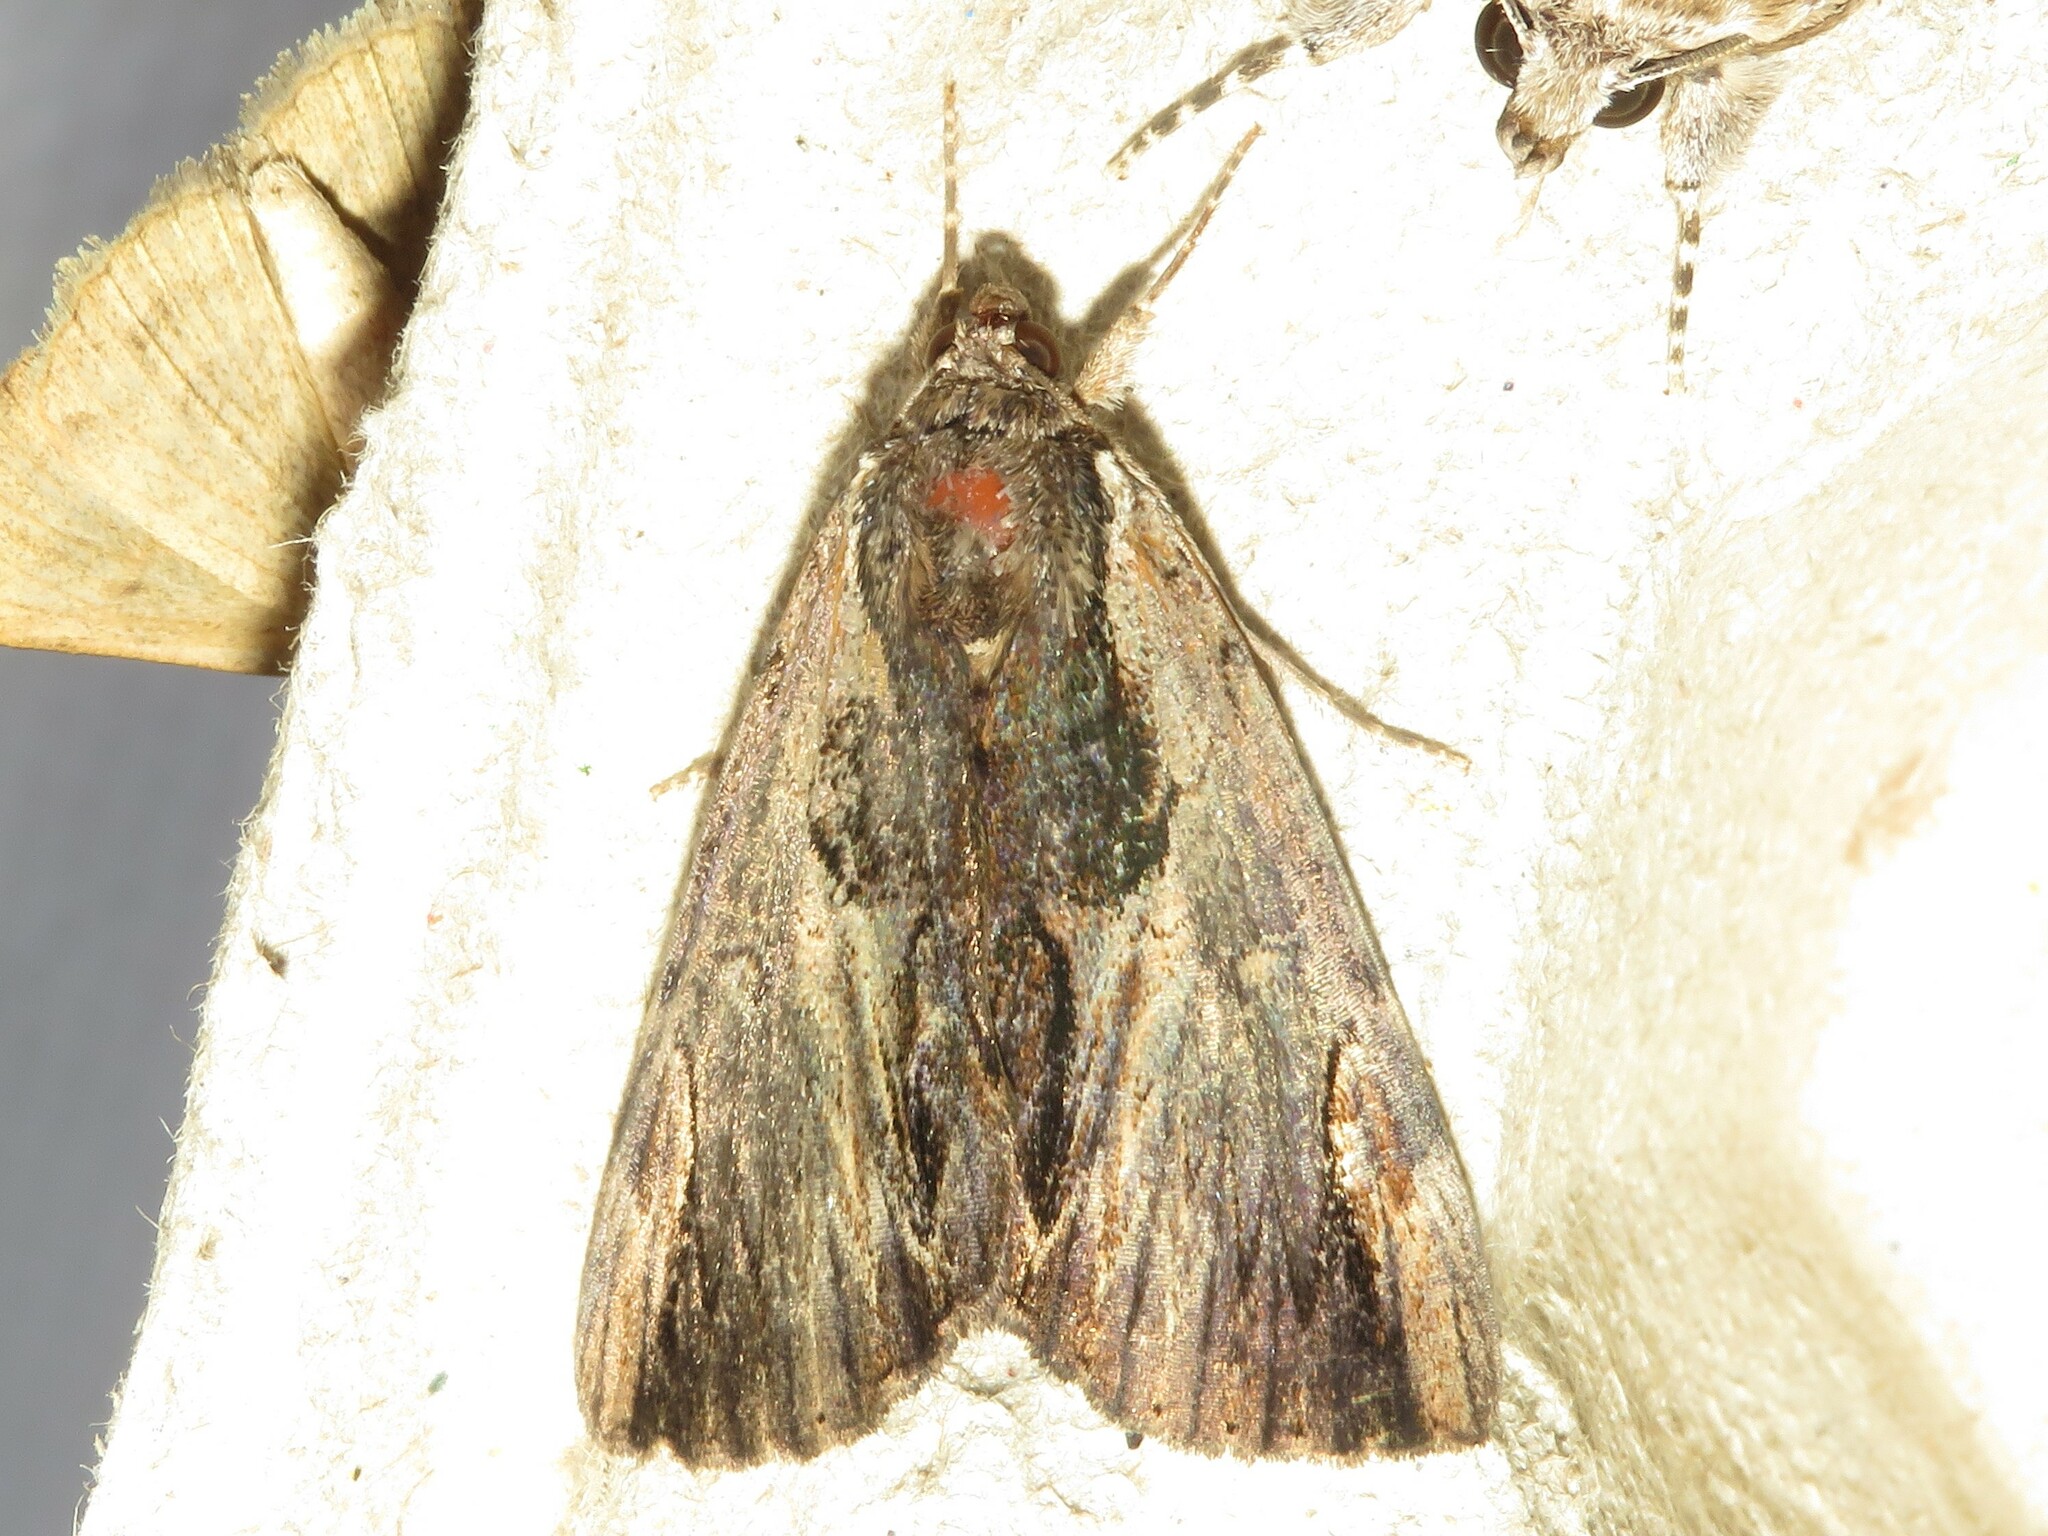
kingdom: Animalia
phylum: Arthropoda
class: Insecta
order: Lepidoptera
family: Erebidae
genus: Catocala
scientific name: Catocala ultronia
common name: Ultronia underwing
